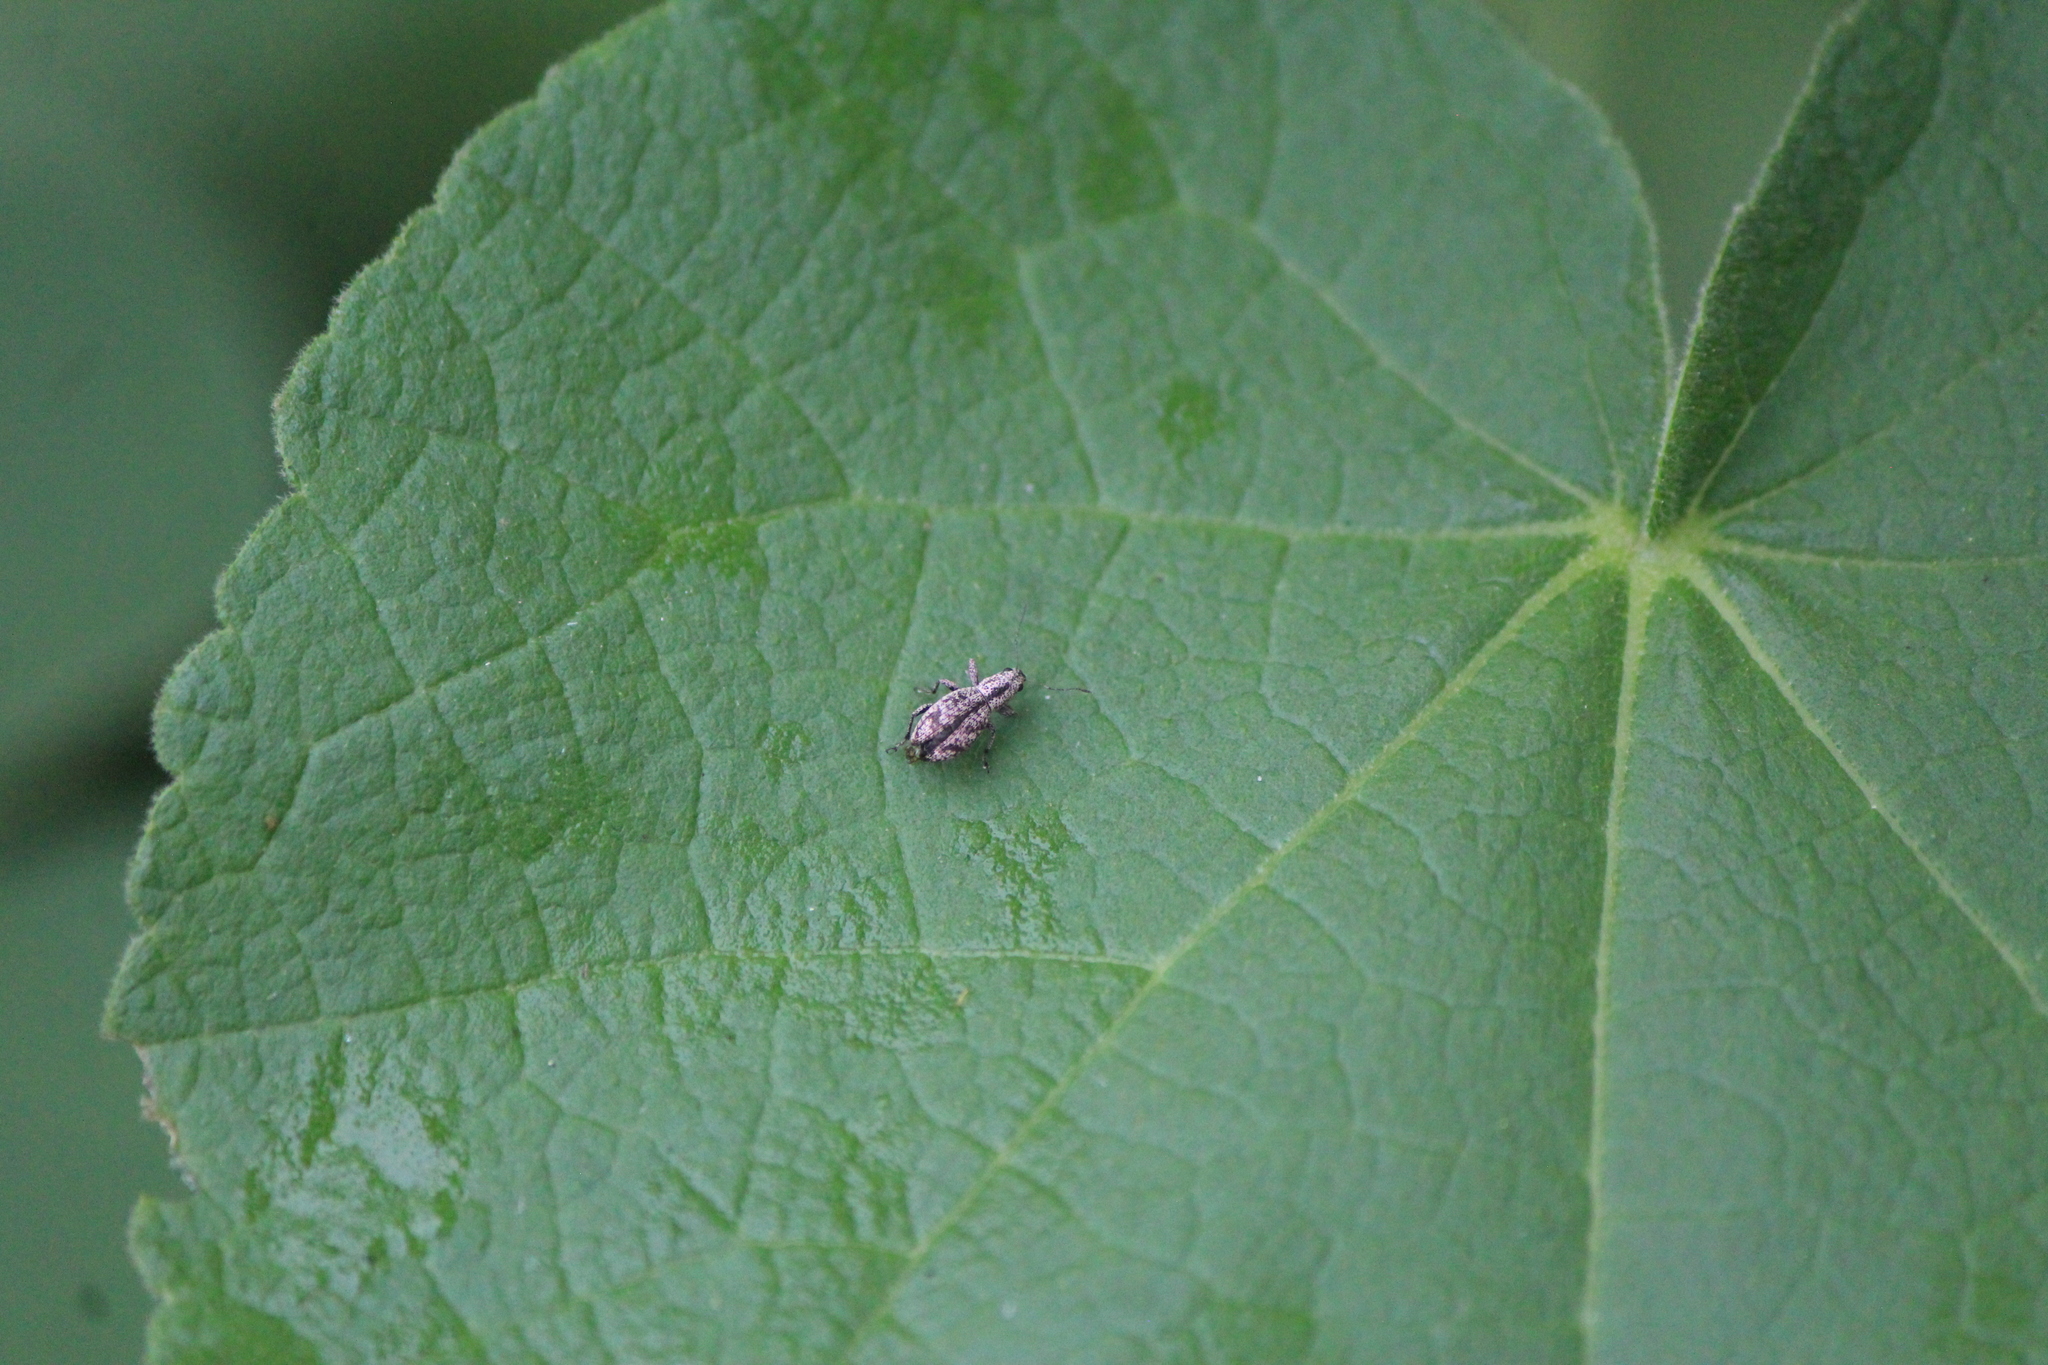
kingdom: Animalia
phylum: Arthropoda
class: Insecta
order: Coleoptera
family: Curculionidae
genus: Mitostylus
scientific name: Mitostylus setosus
